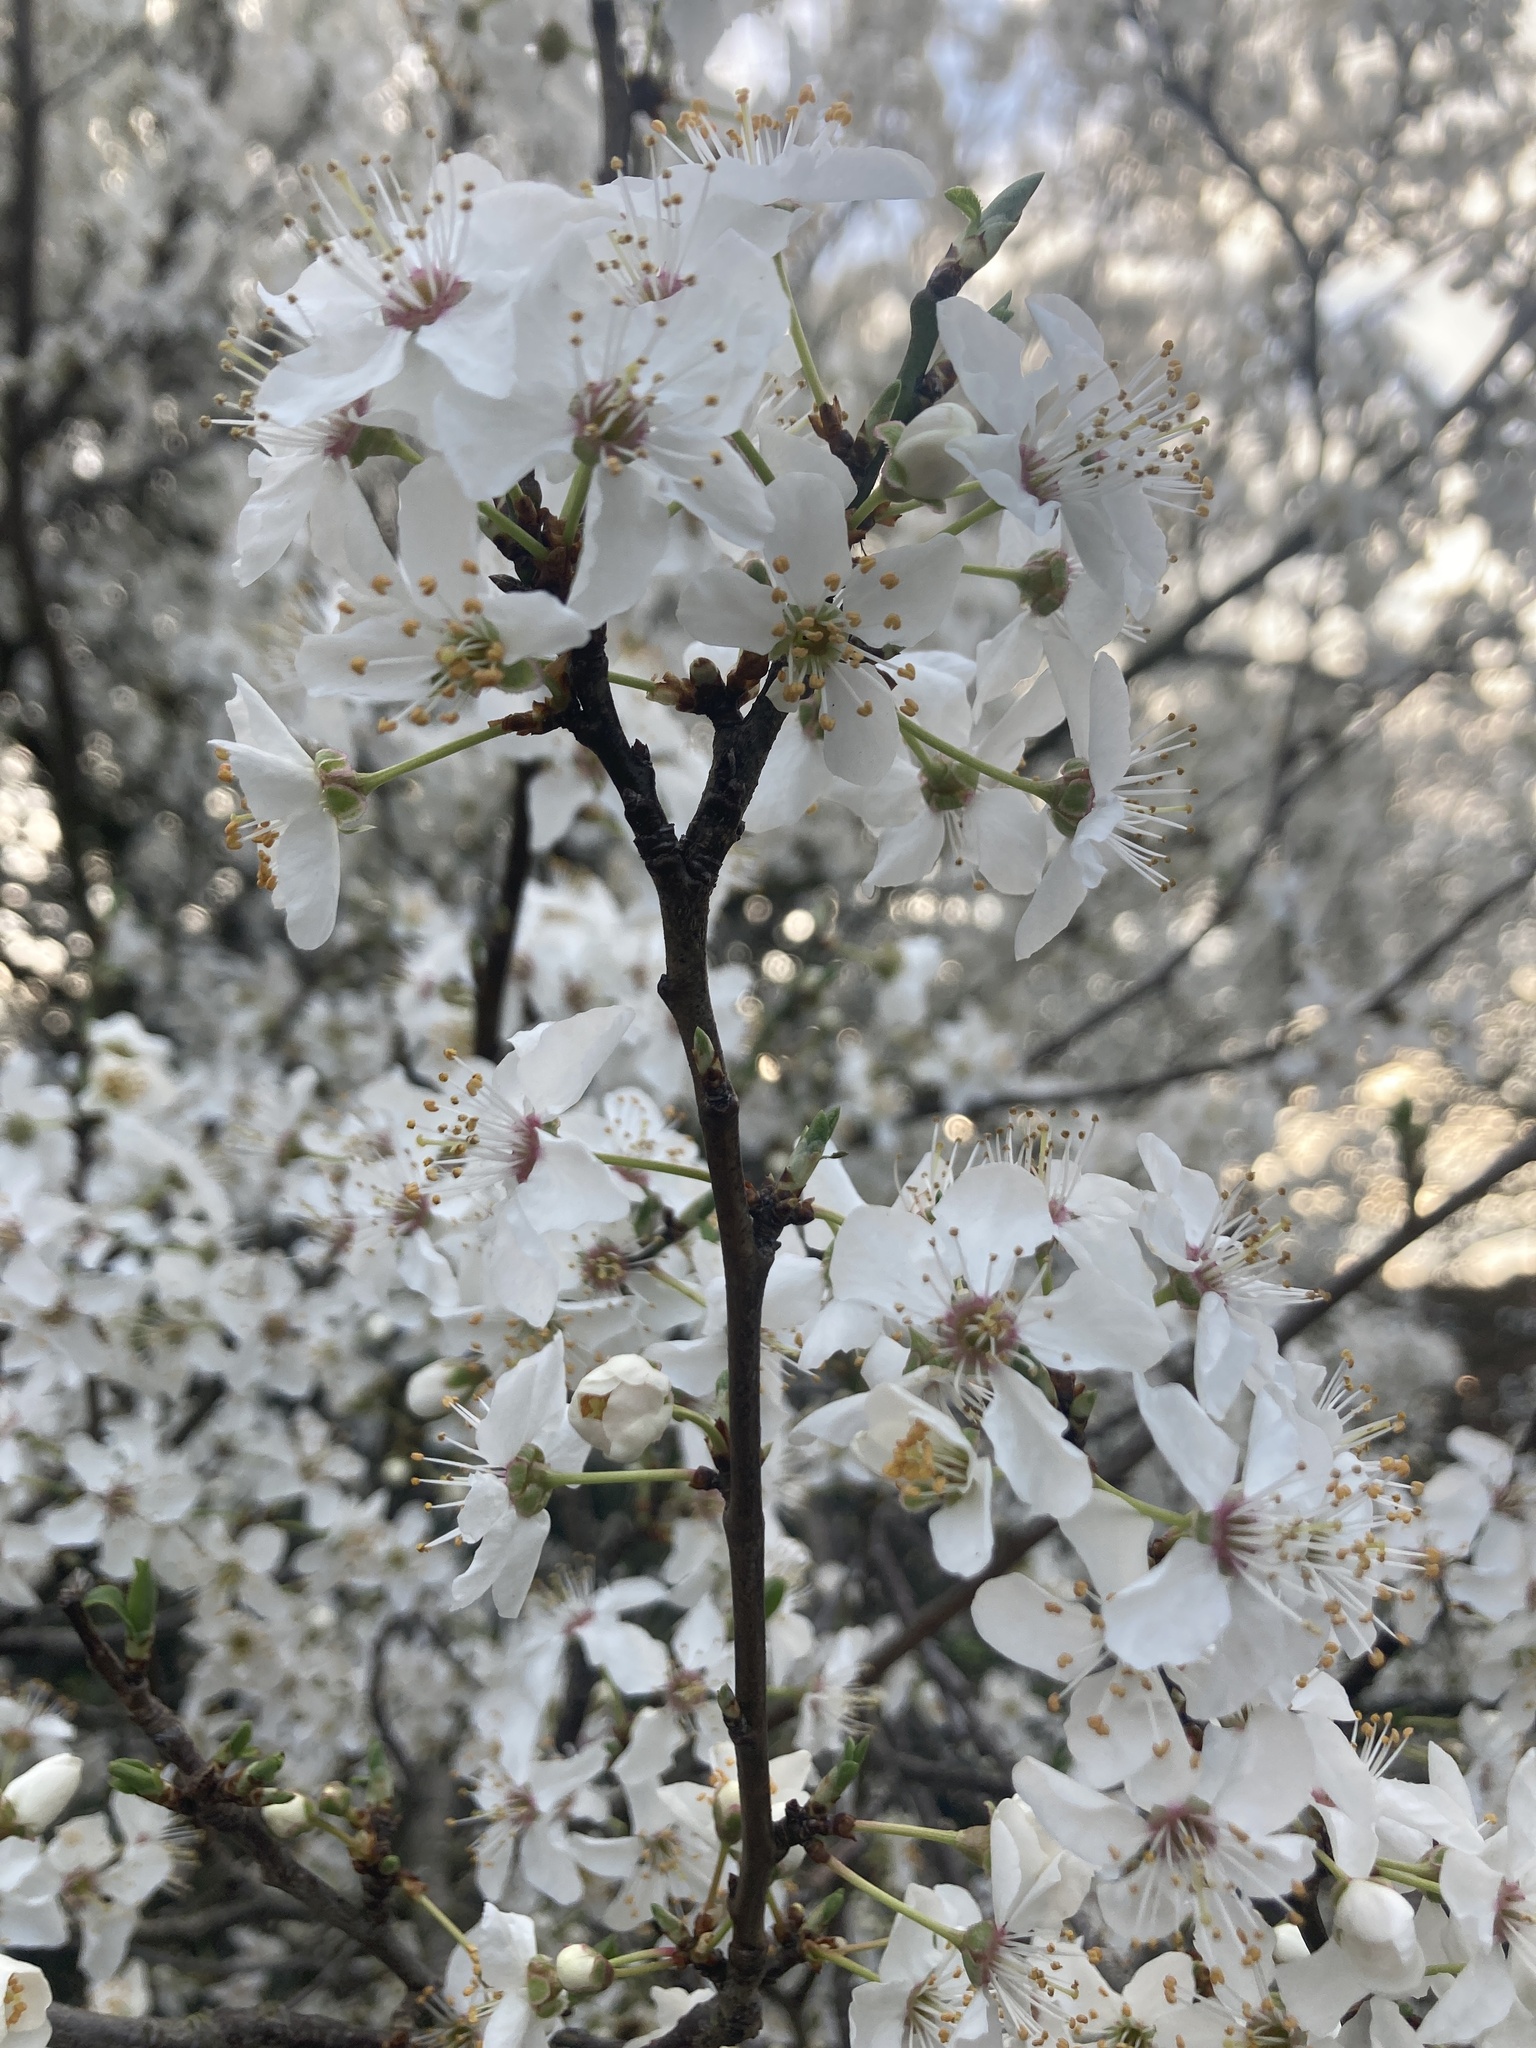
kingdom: Plantae
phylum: Tracheophyta
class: Magnoliopsida
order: Rosales
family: Rosaceae
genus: Prunus
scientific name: Prunus cerasifera
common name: Cherry plum
